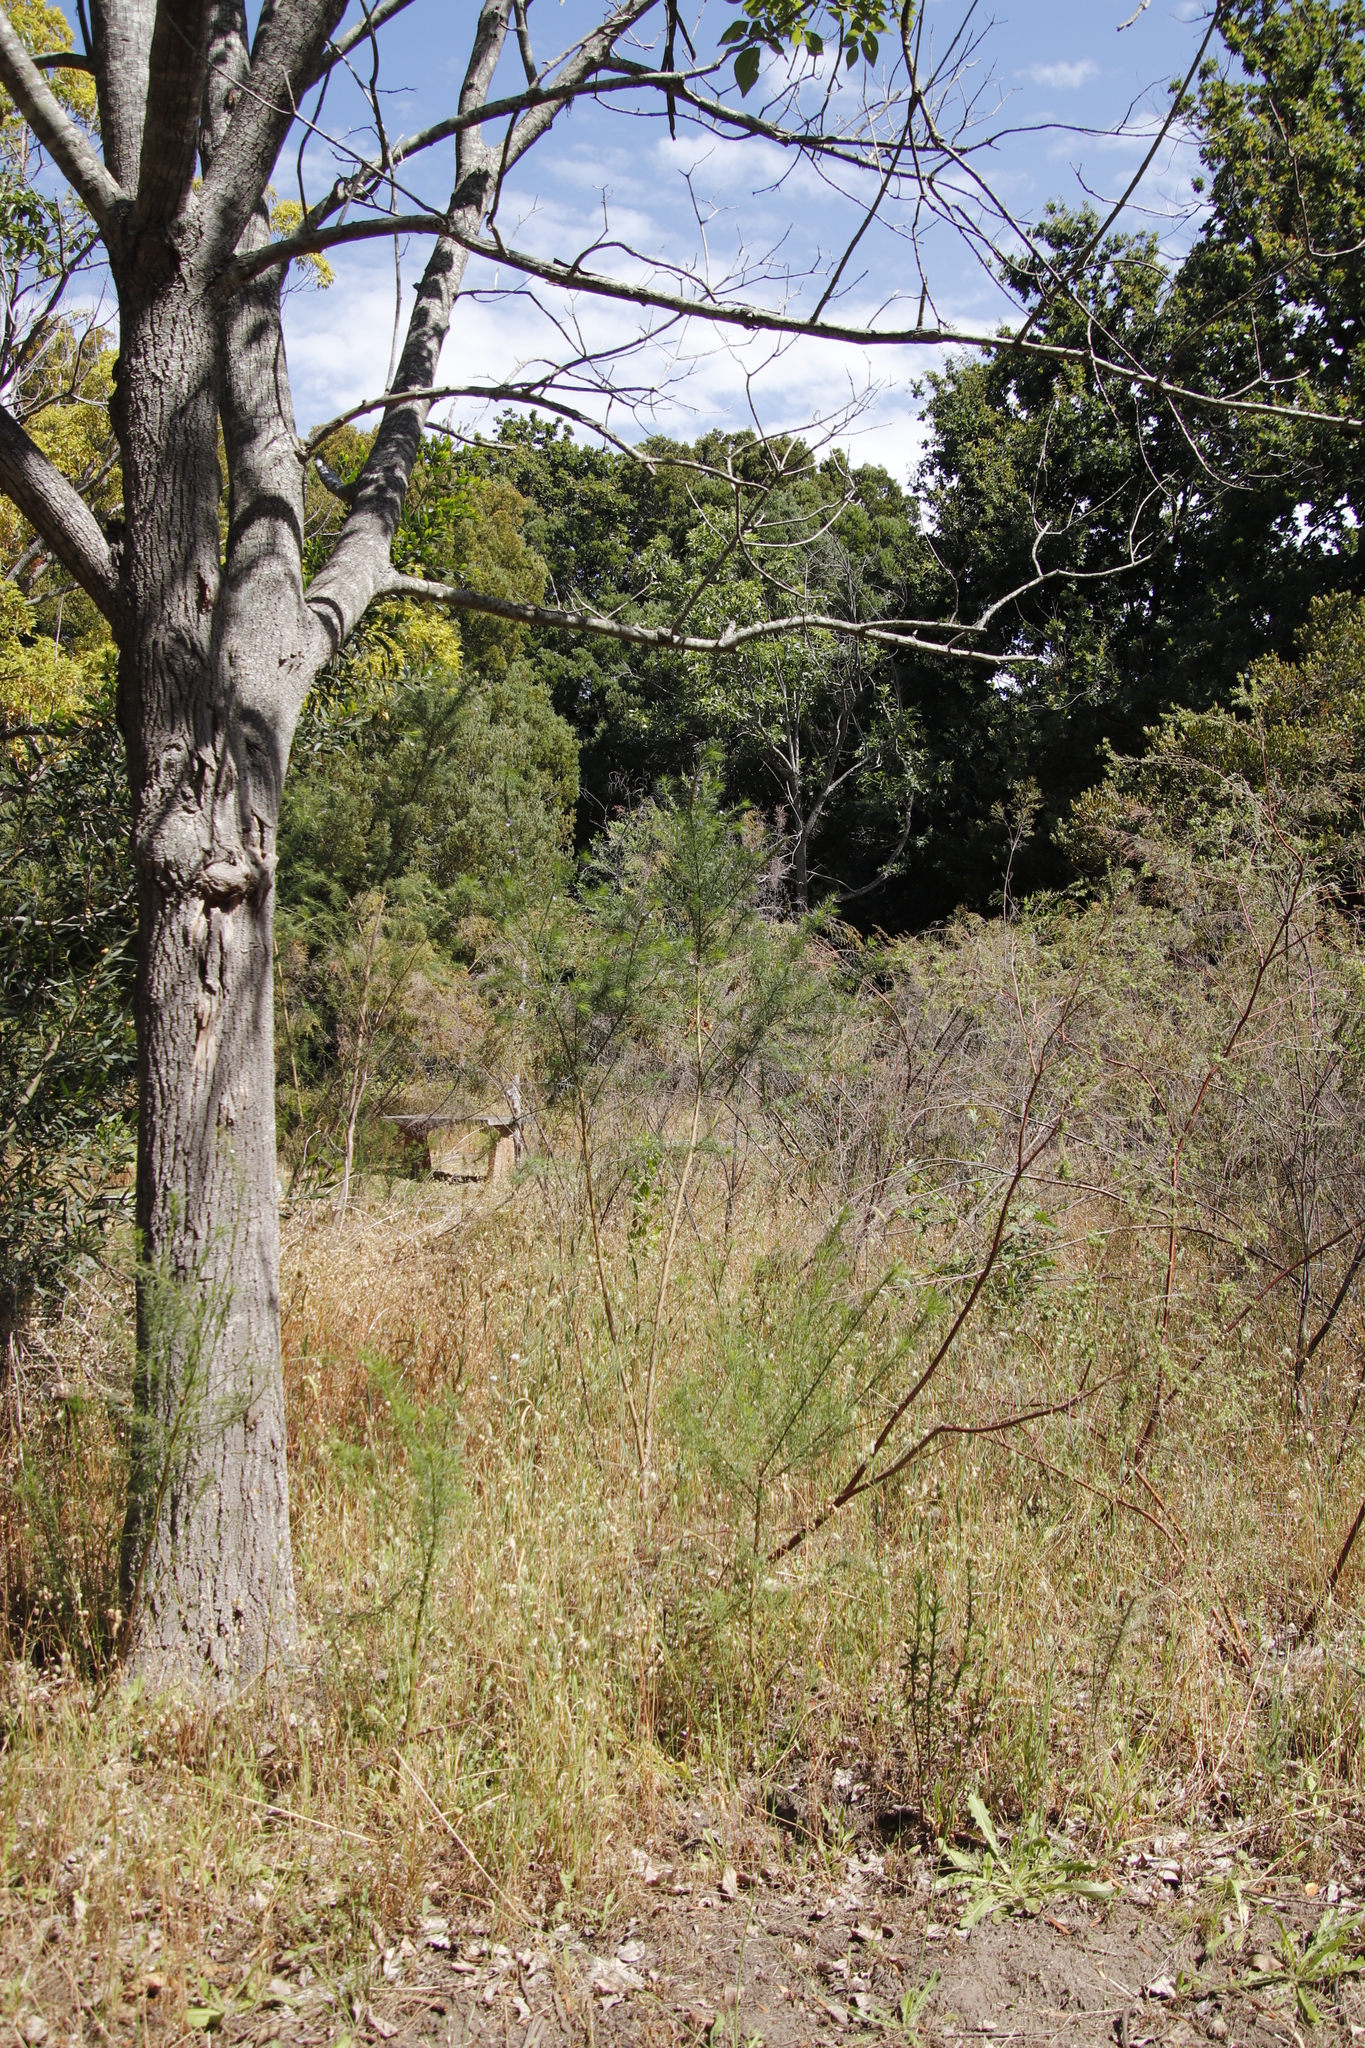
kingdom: Plantae
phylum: Tracheophyta
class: Magnoliopsida
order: Malvales
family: Thymelaeaceae
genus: Gnidia
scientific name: Gnidia sericea
